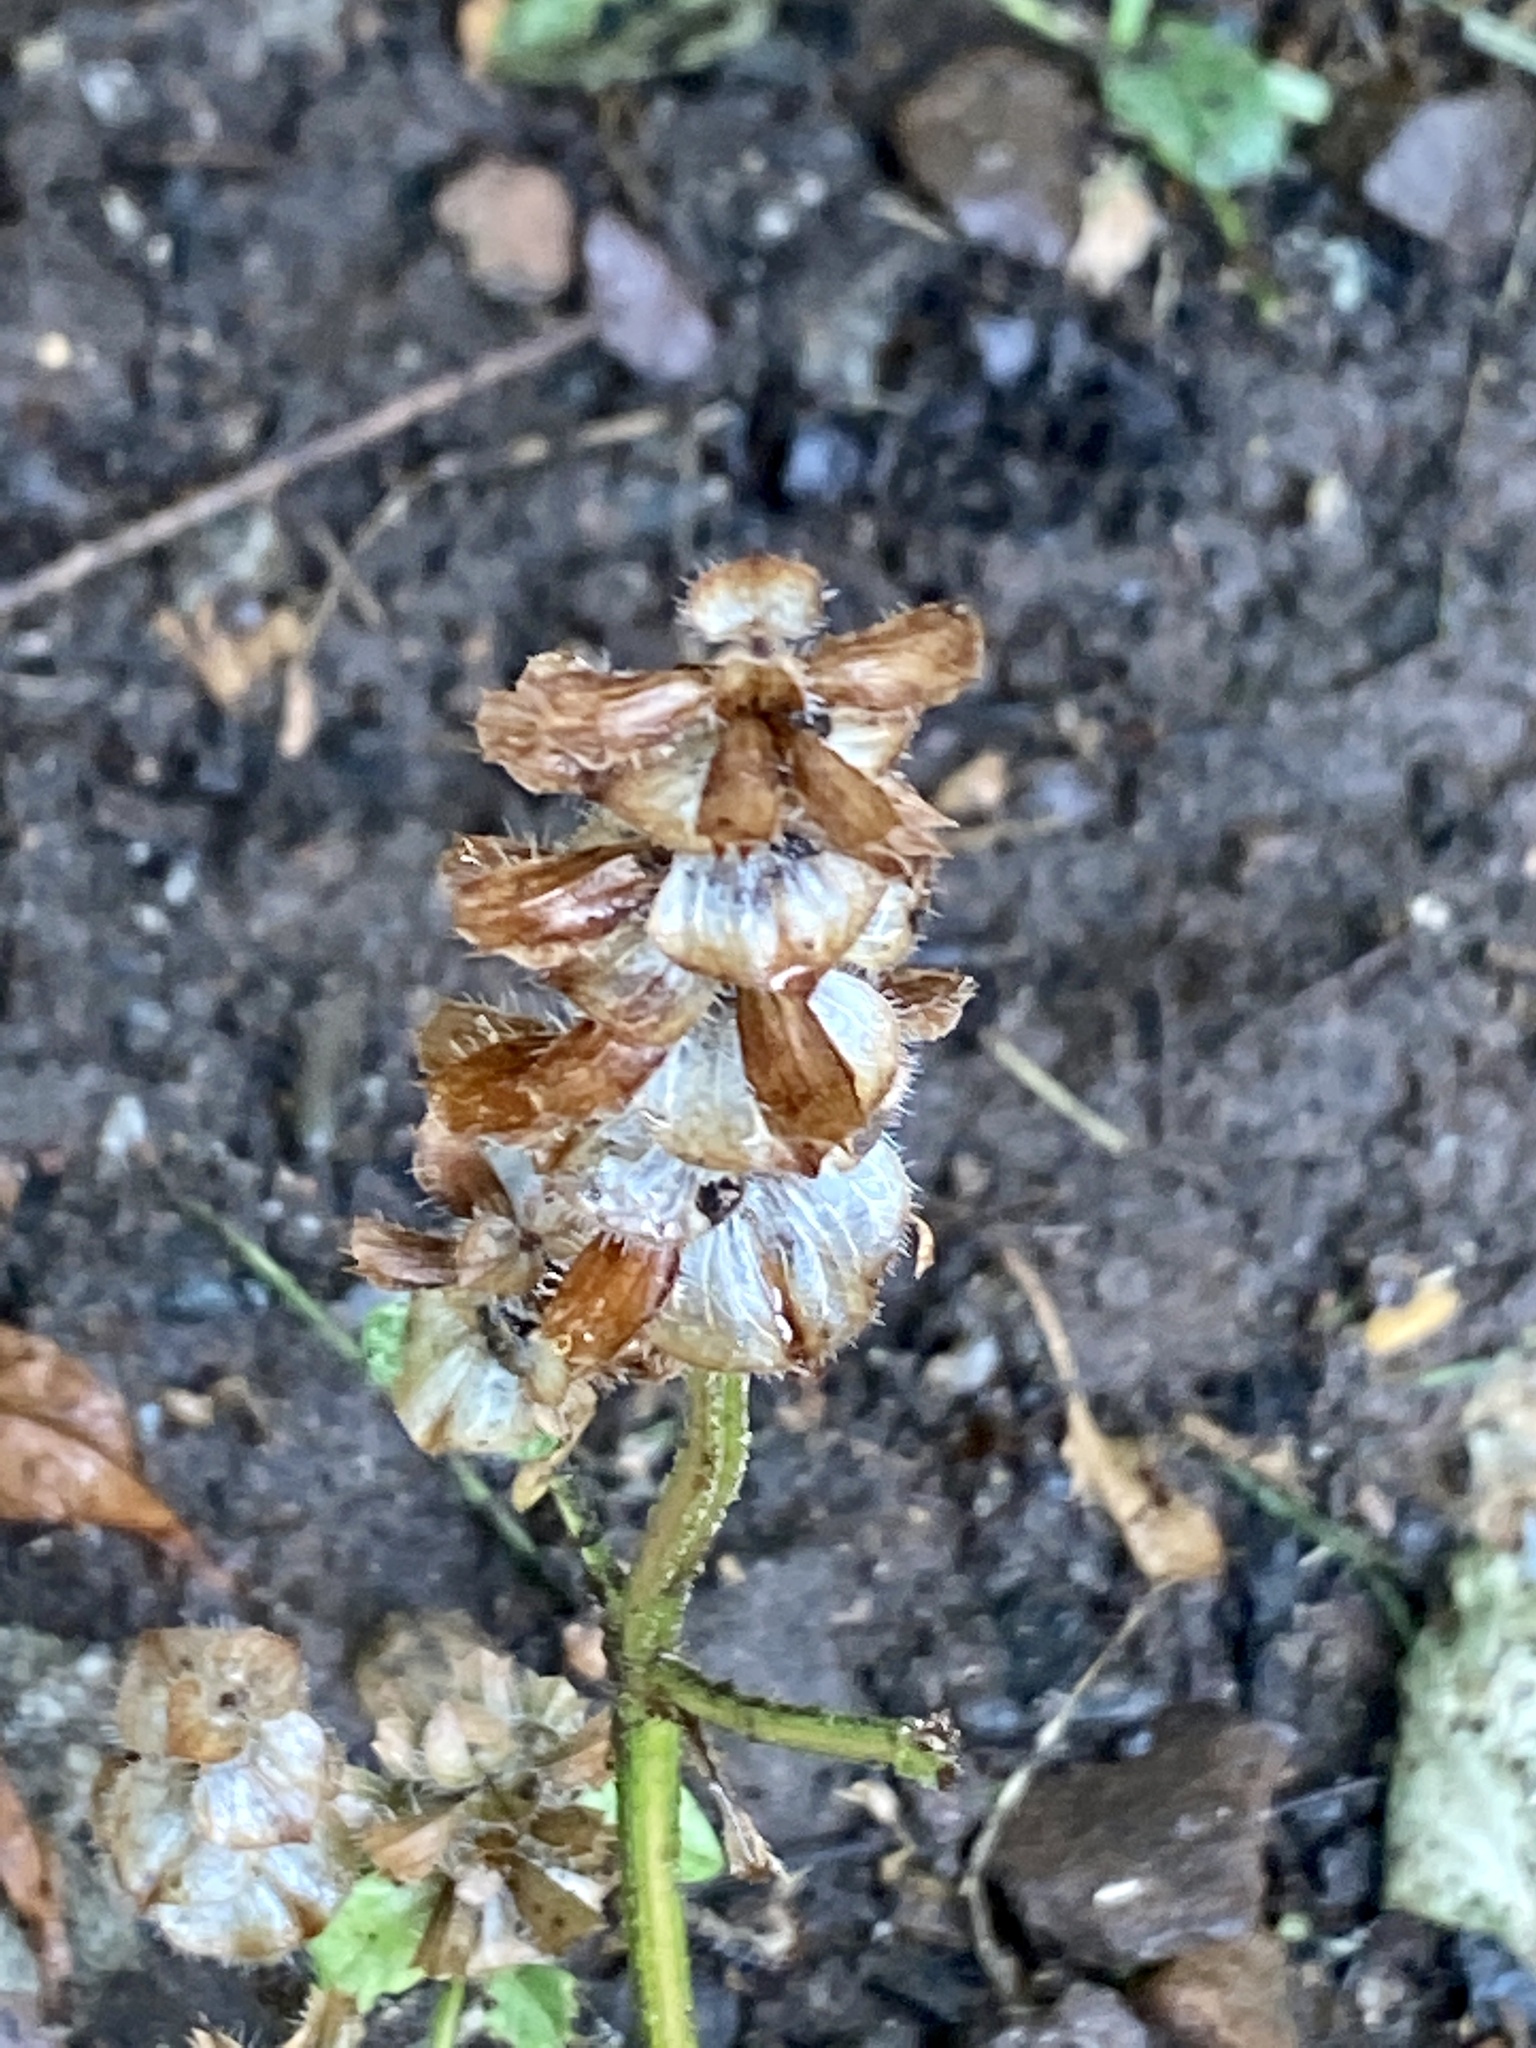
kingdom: Plantae
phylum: Tracheophyta
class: Magnoliopsida
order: Lamiales
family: Lamiaceae
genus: Prunella
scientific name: Prunella vulgaris
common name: Heal-all
